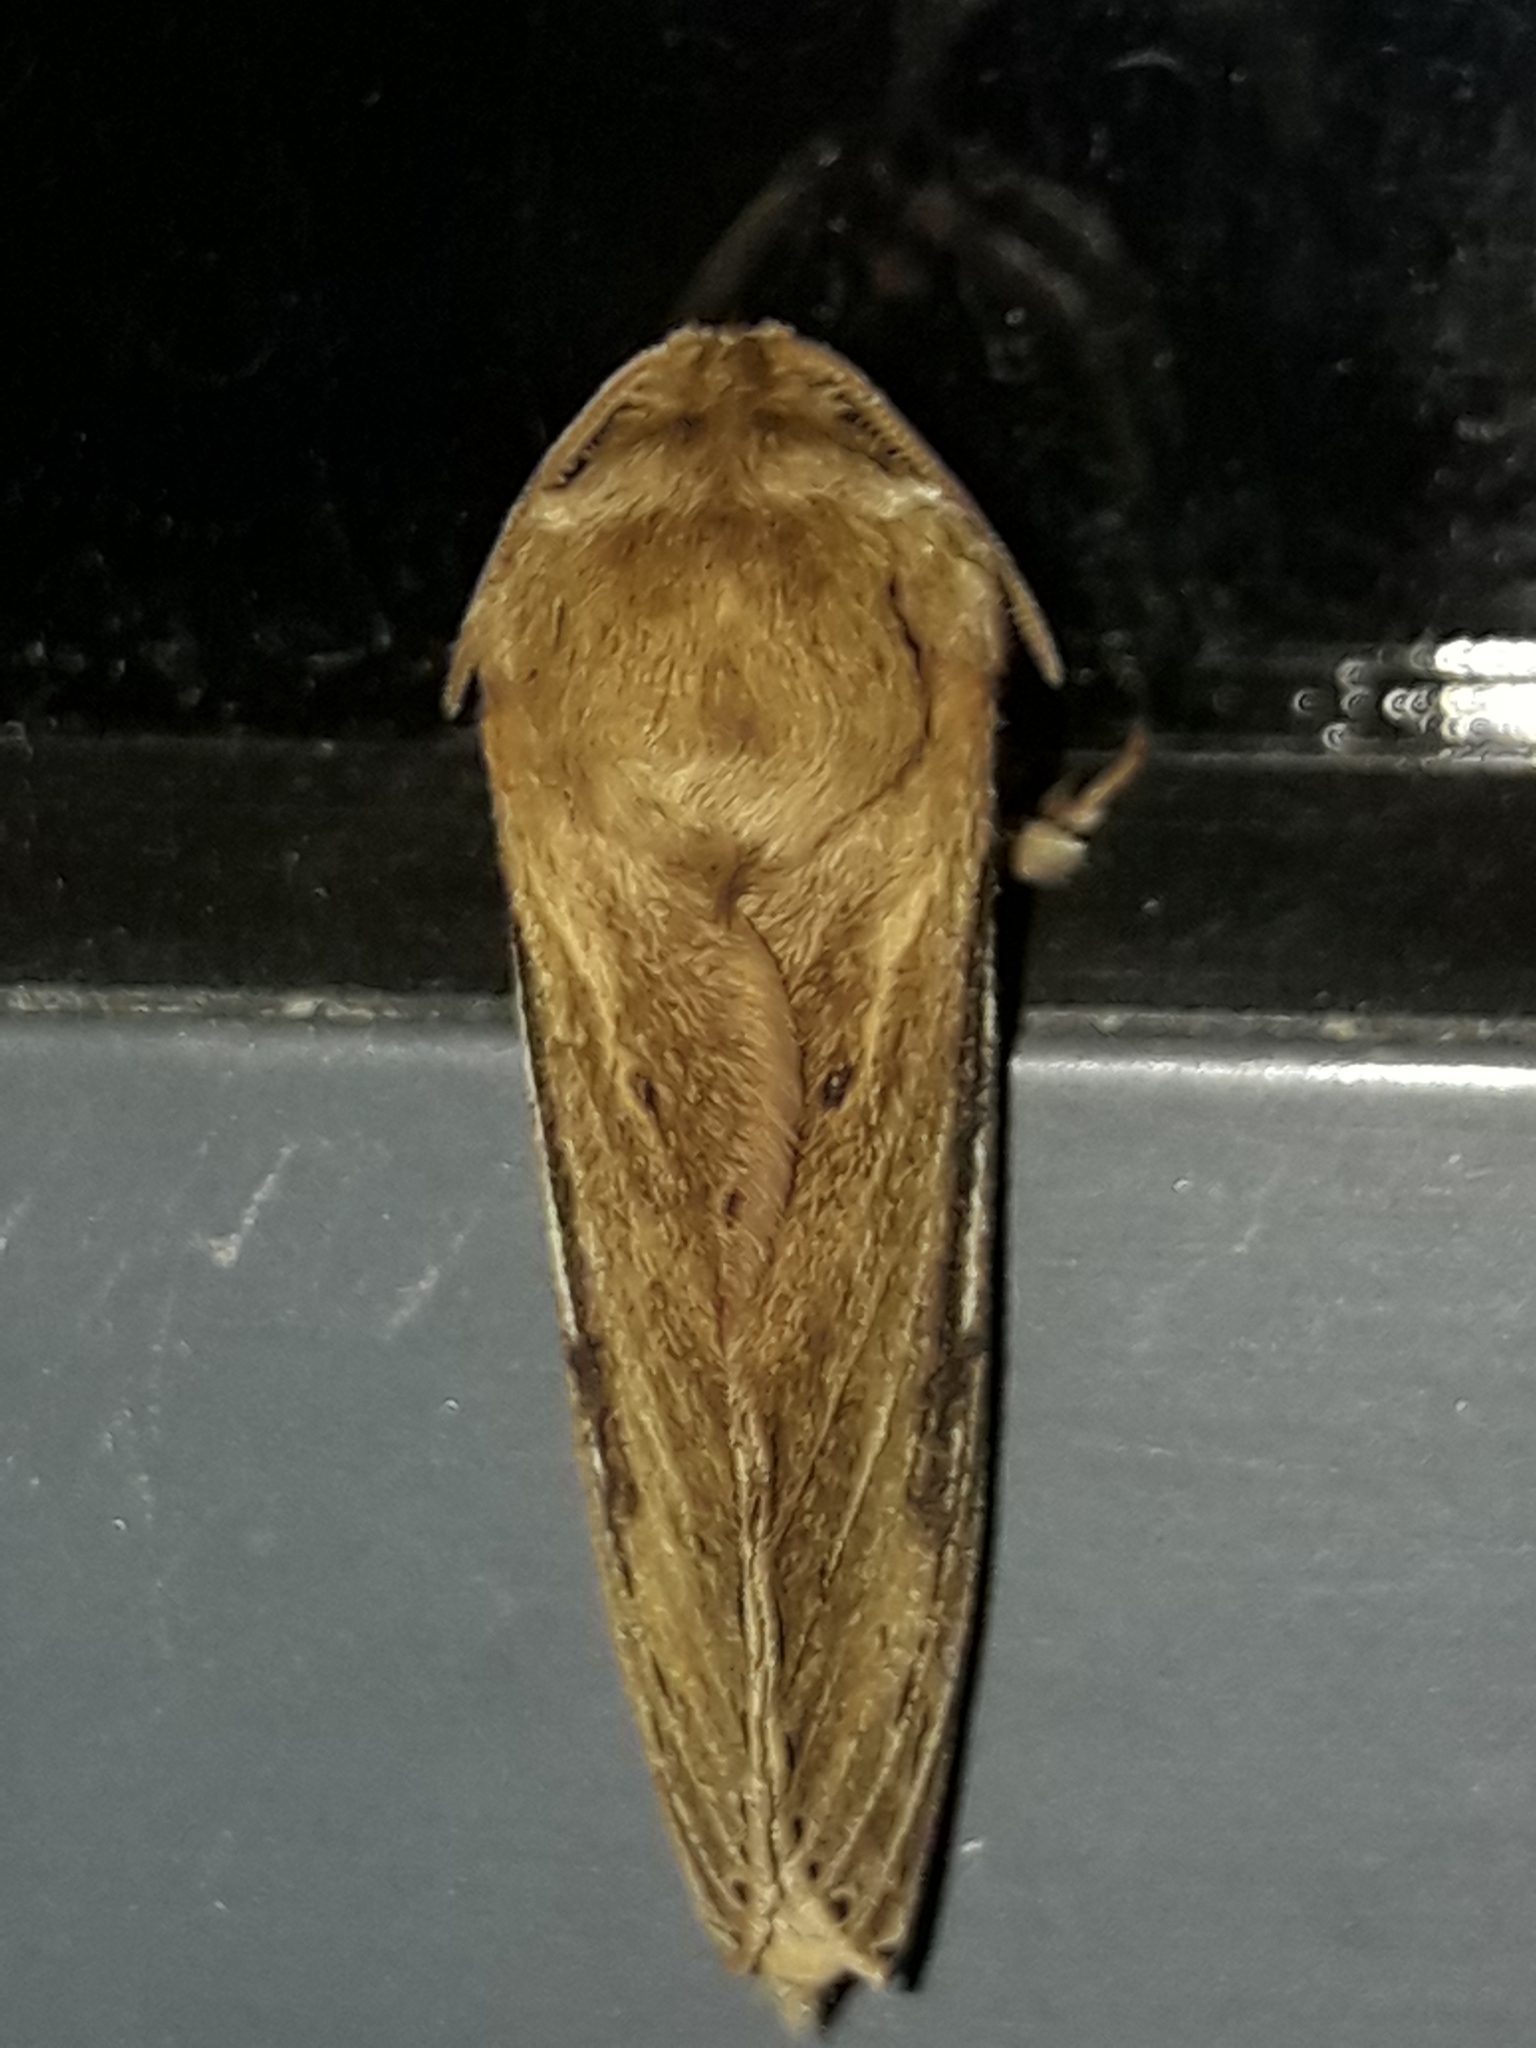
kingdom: Animalia
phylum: Arthropoda
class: Insecta
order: Lepidoptera
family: Hepialidae
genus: Wiseana
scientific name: Wiseana umbraculatus
